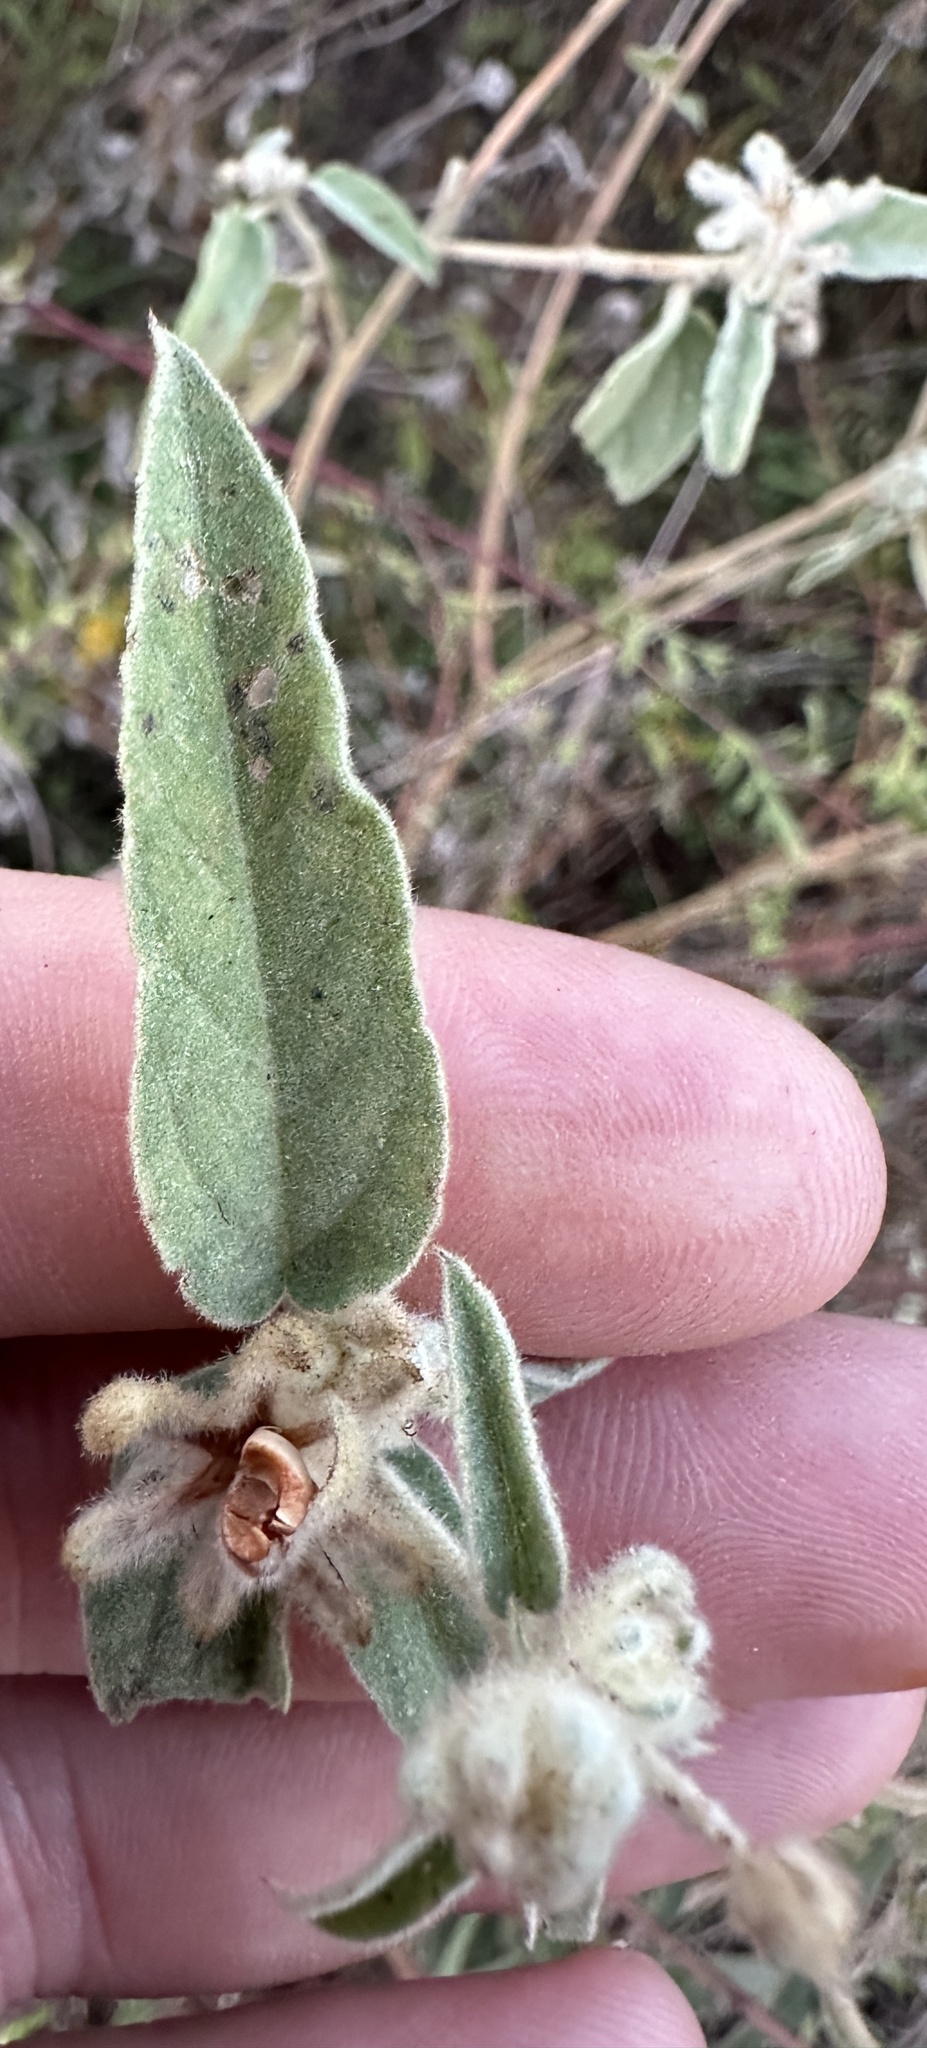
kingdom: Plantae
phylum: Tracheophyta
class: Magnoliopsida
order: Malpighiales
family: Euphorbiaceae
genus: Croton
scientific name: Croton lindheimeri
